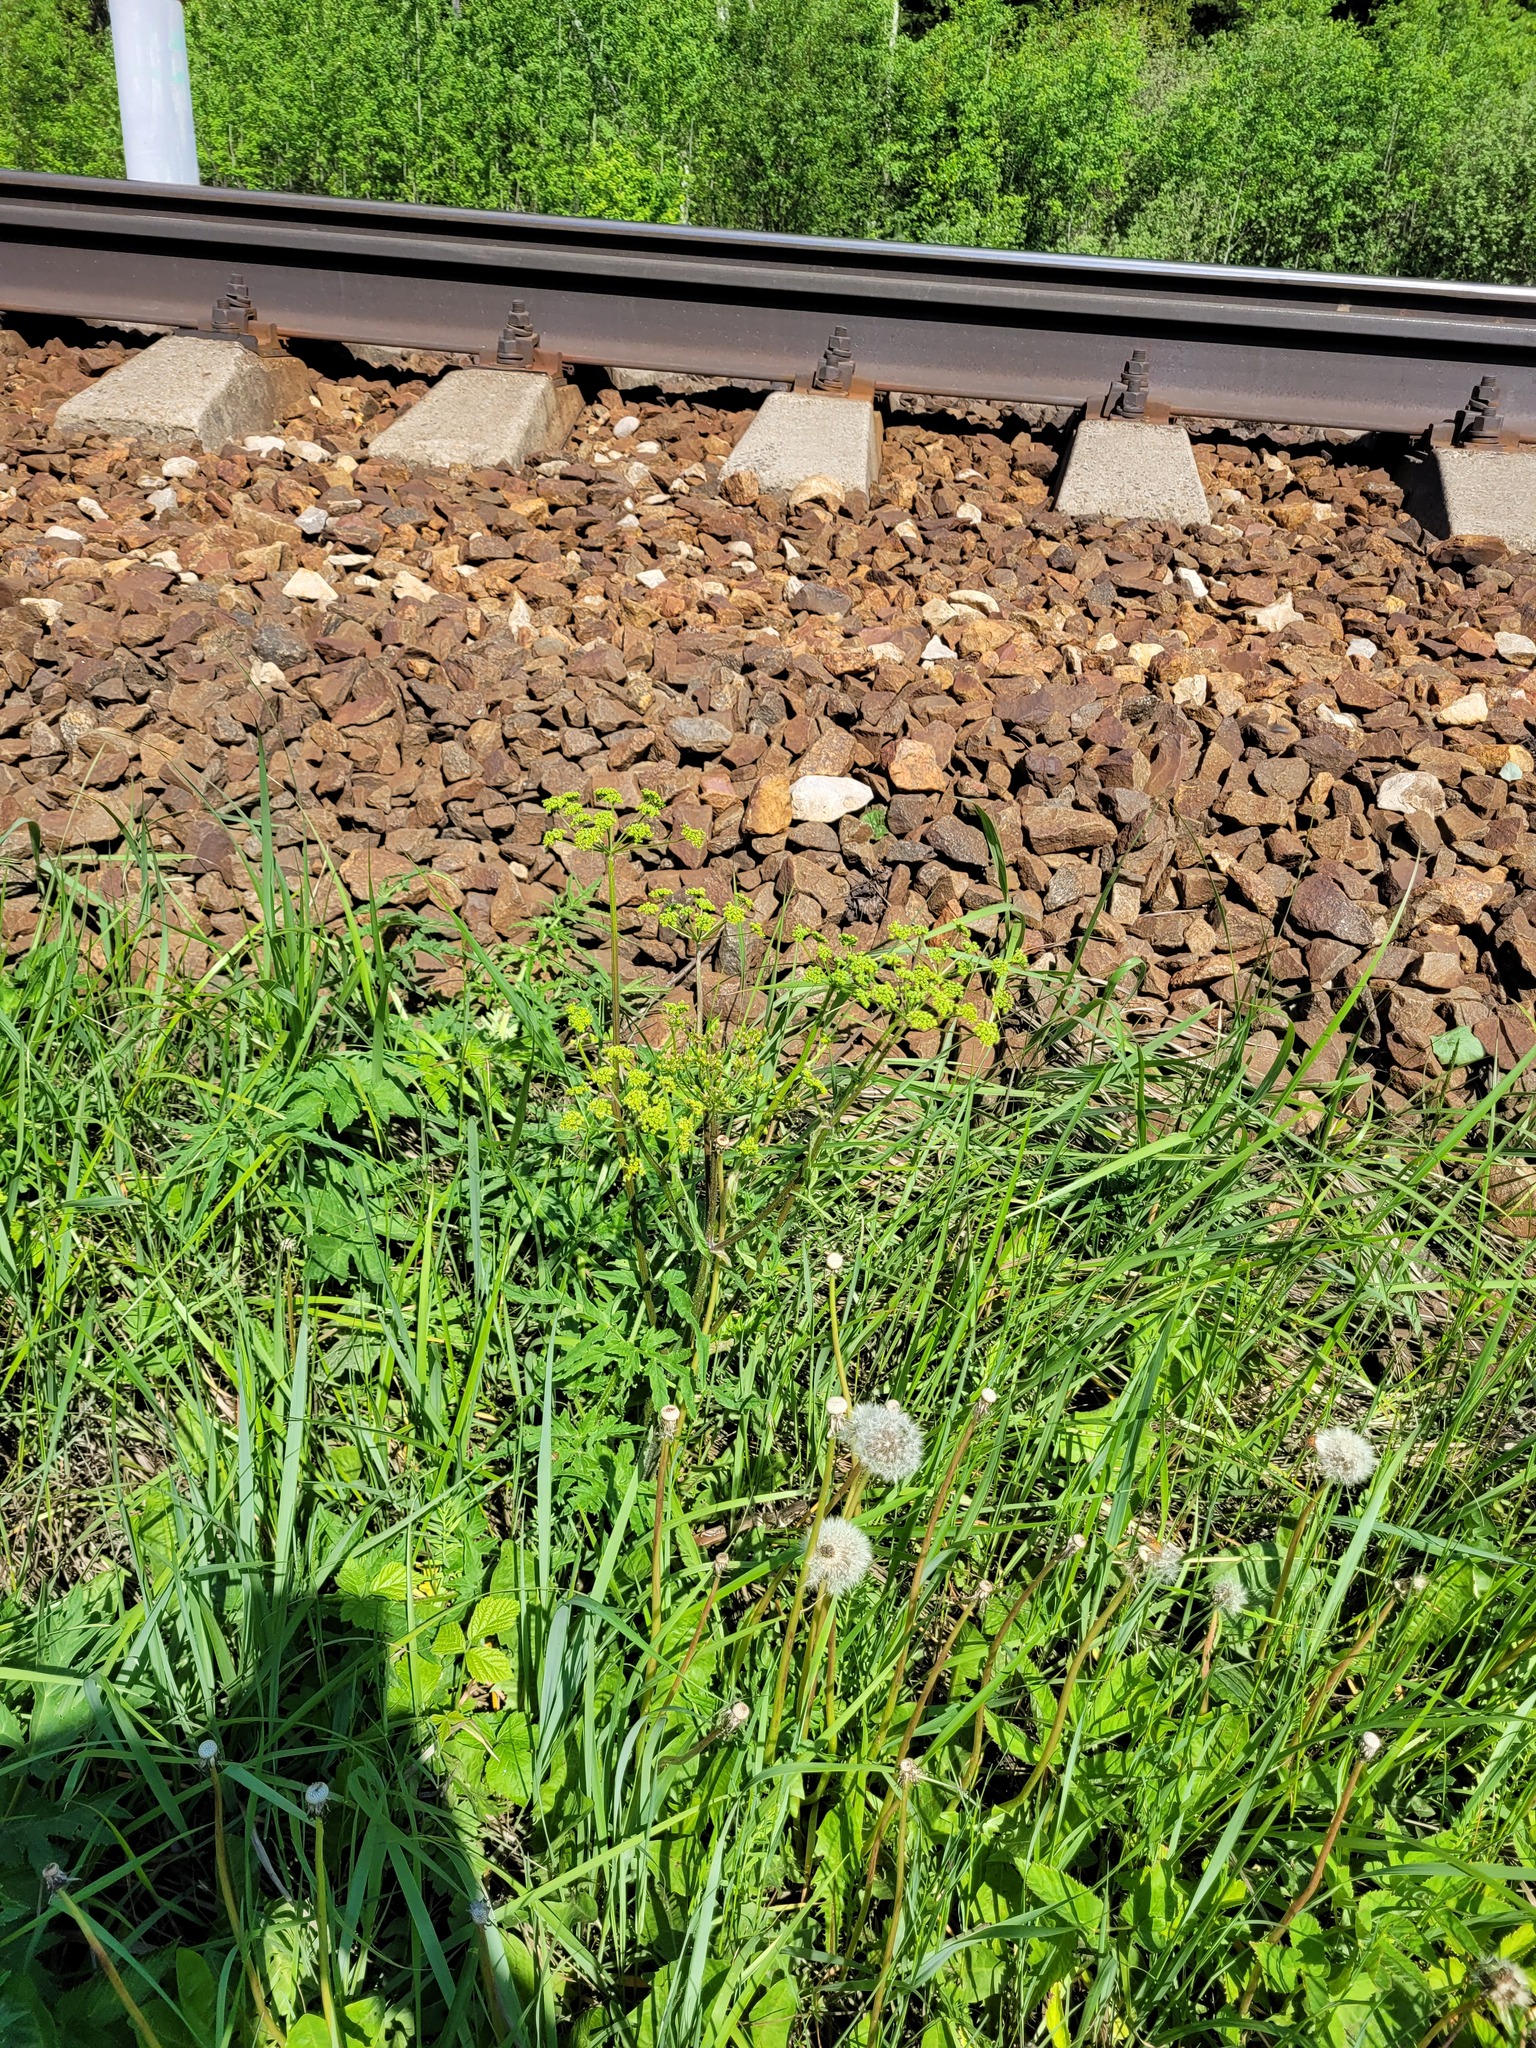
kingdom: Plantae
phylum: Tracheophyta
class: Magnoliopsida
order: Apiales
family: Apiaceae
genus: Heracleum
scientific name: Heracleum sphondylium
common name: Hogweed
